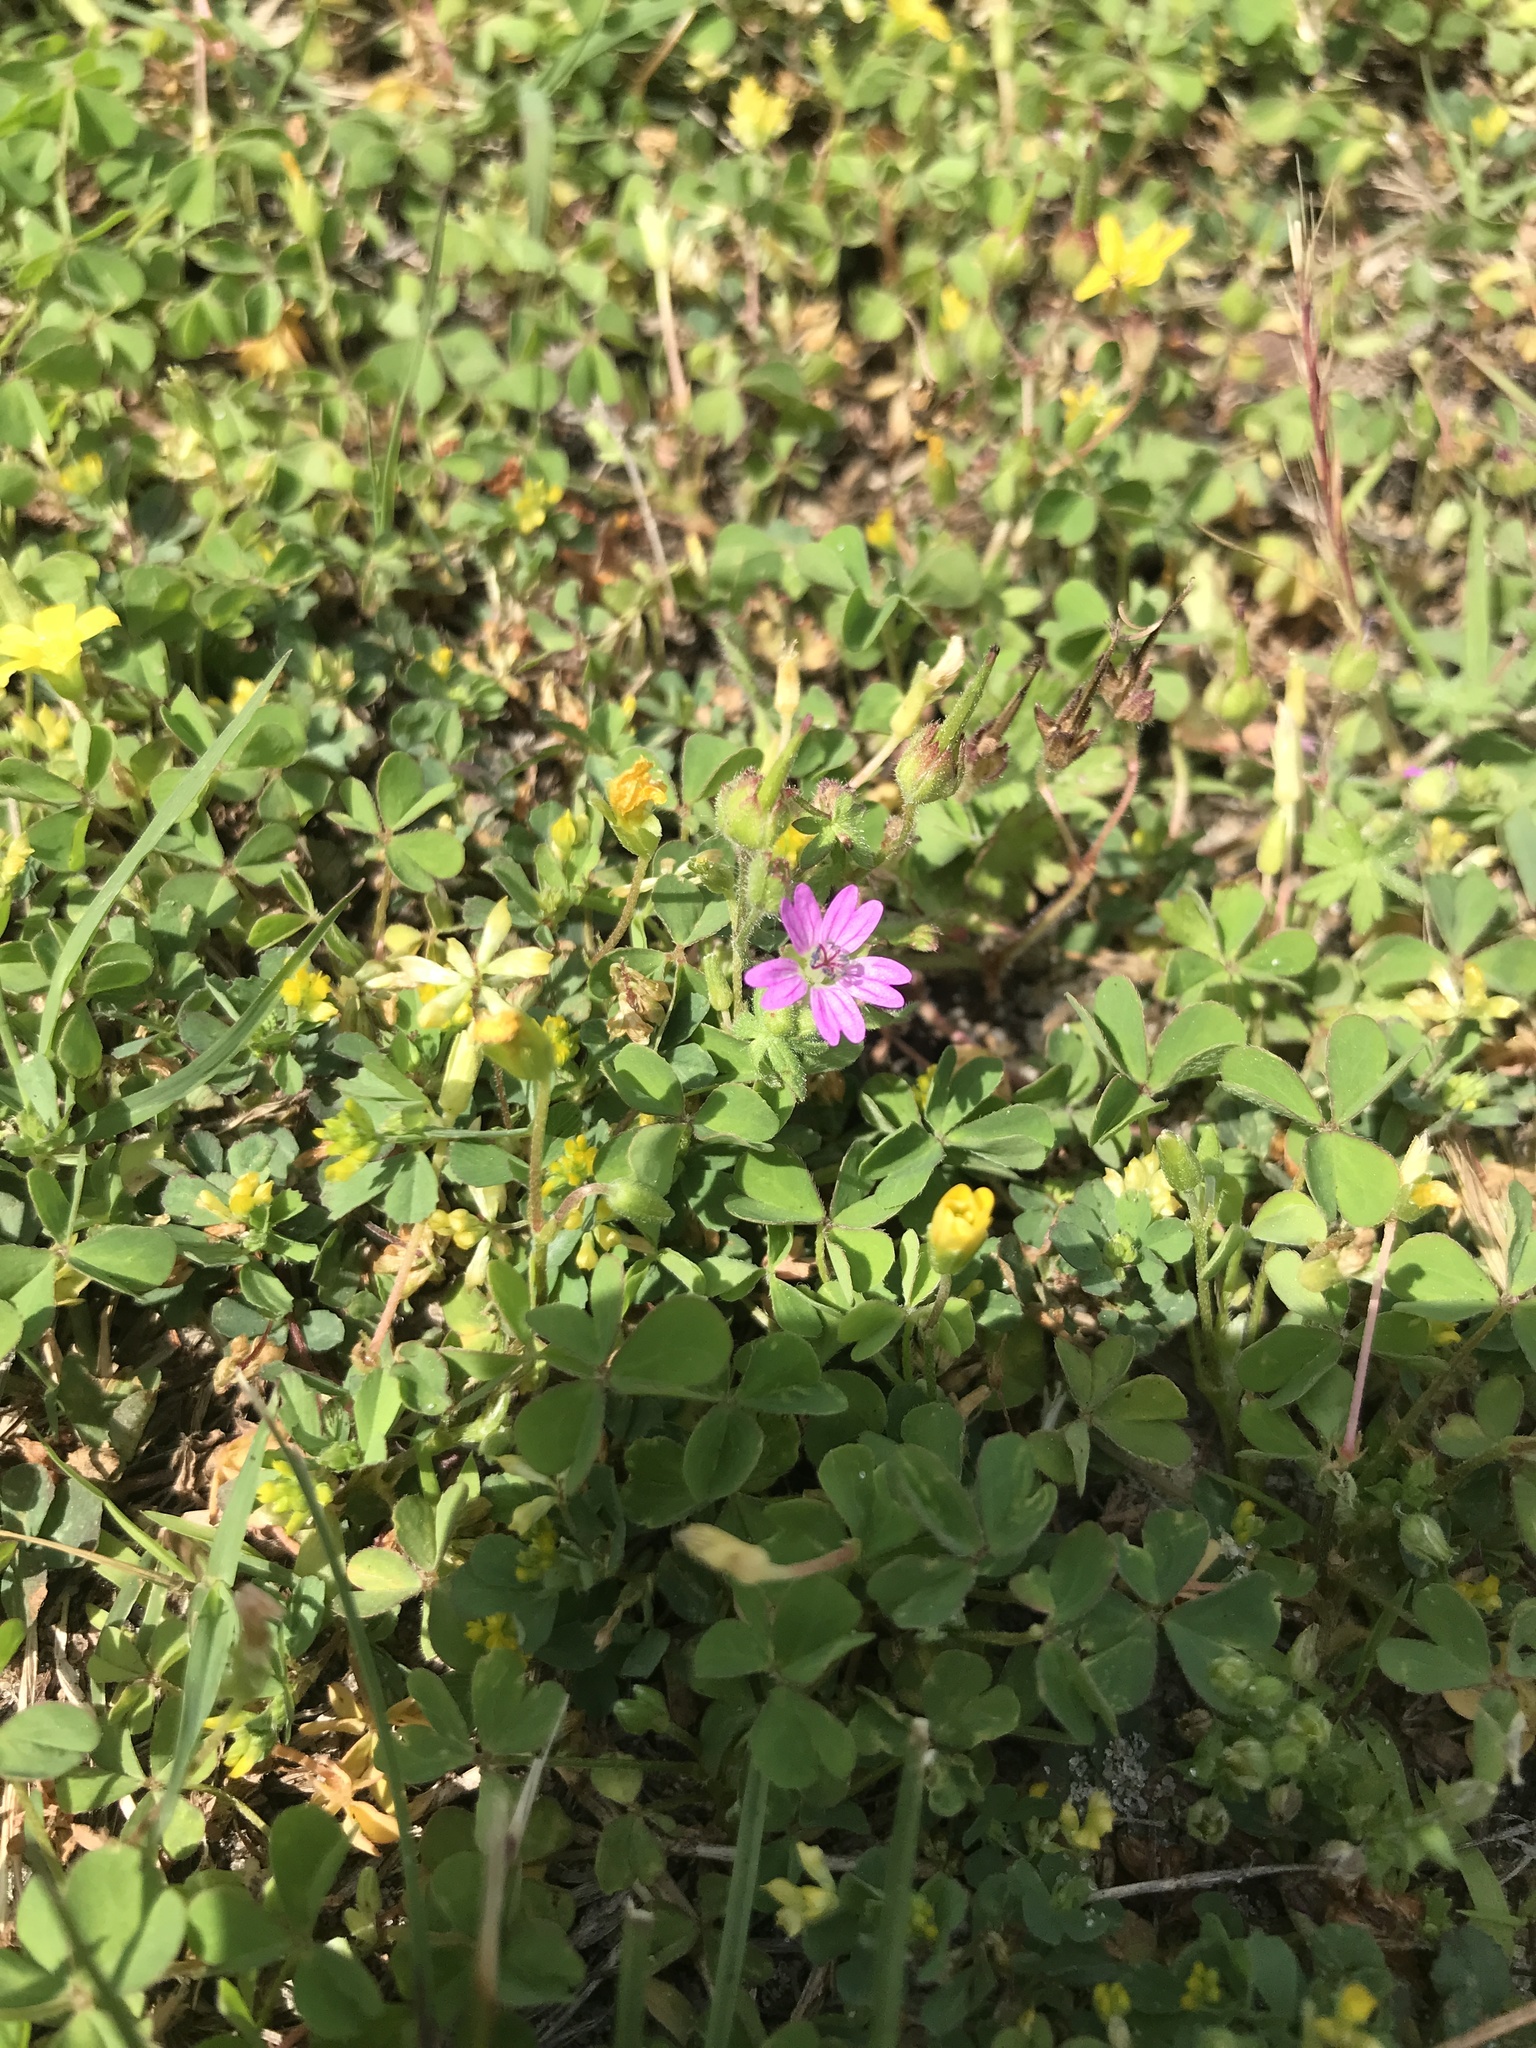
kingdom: Plantae
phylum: Tracheophyta
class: Magnoliopsida
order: Geraniales
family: Geraniaceae
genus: Geranium
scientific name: Geranium molle
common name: Dove's-foot crane's-bill
